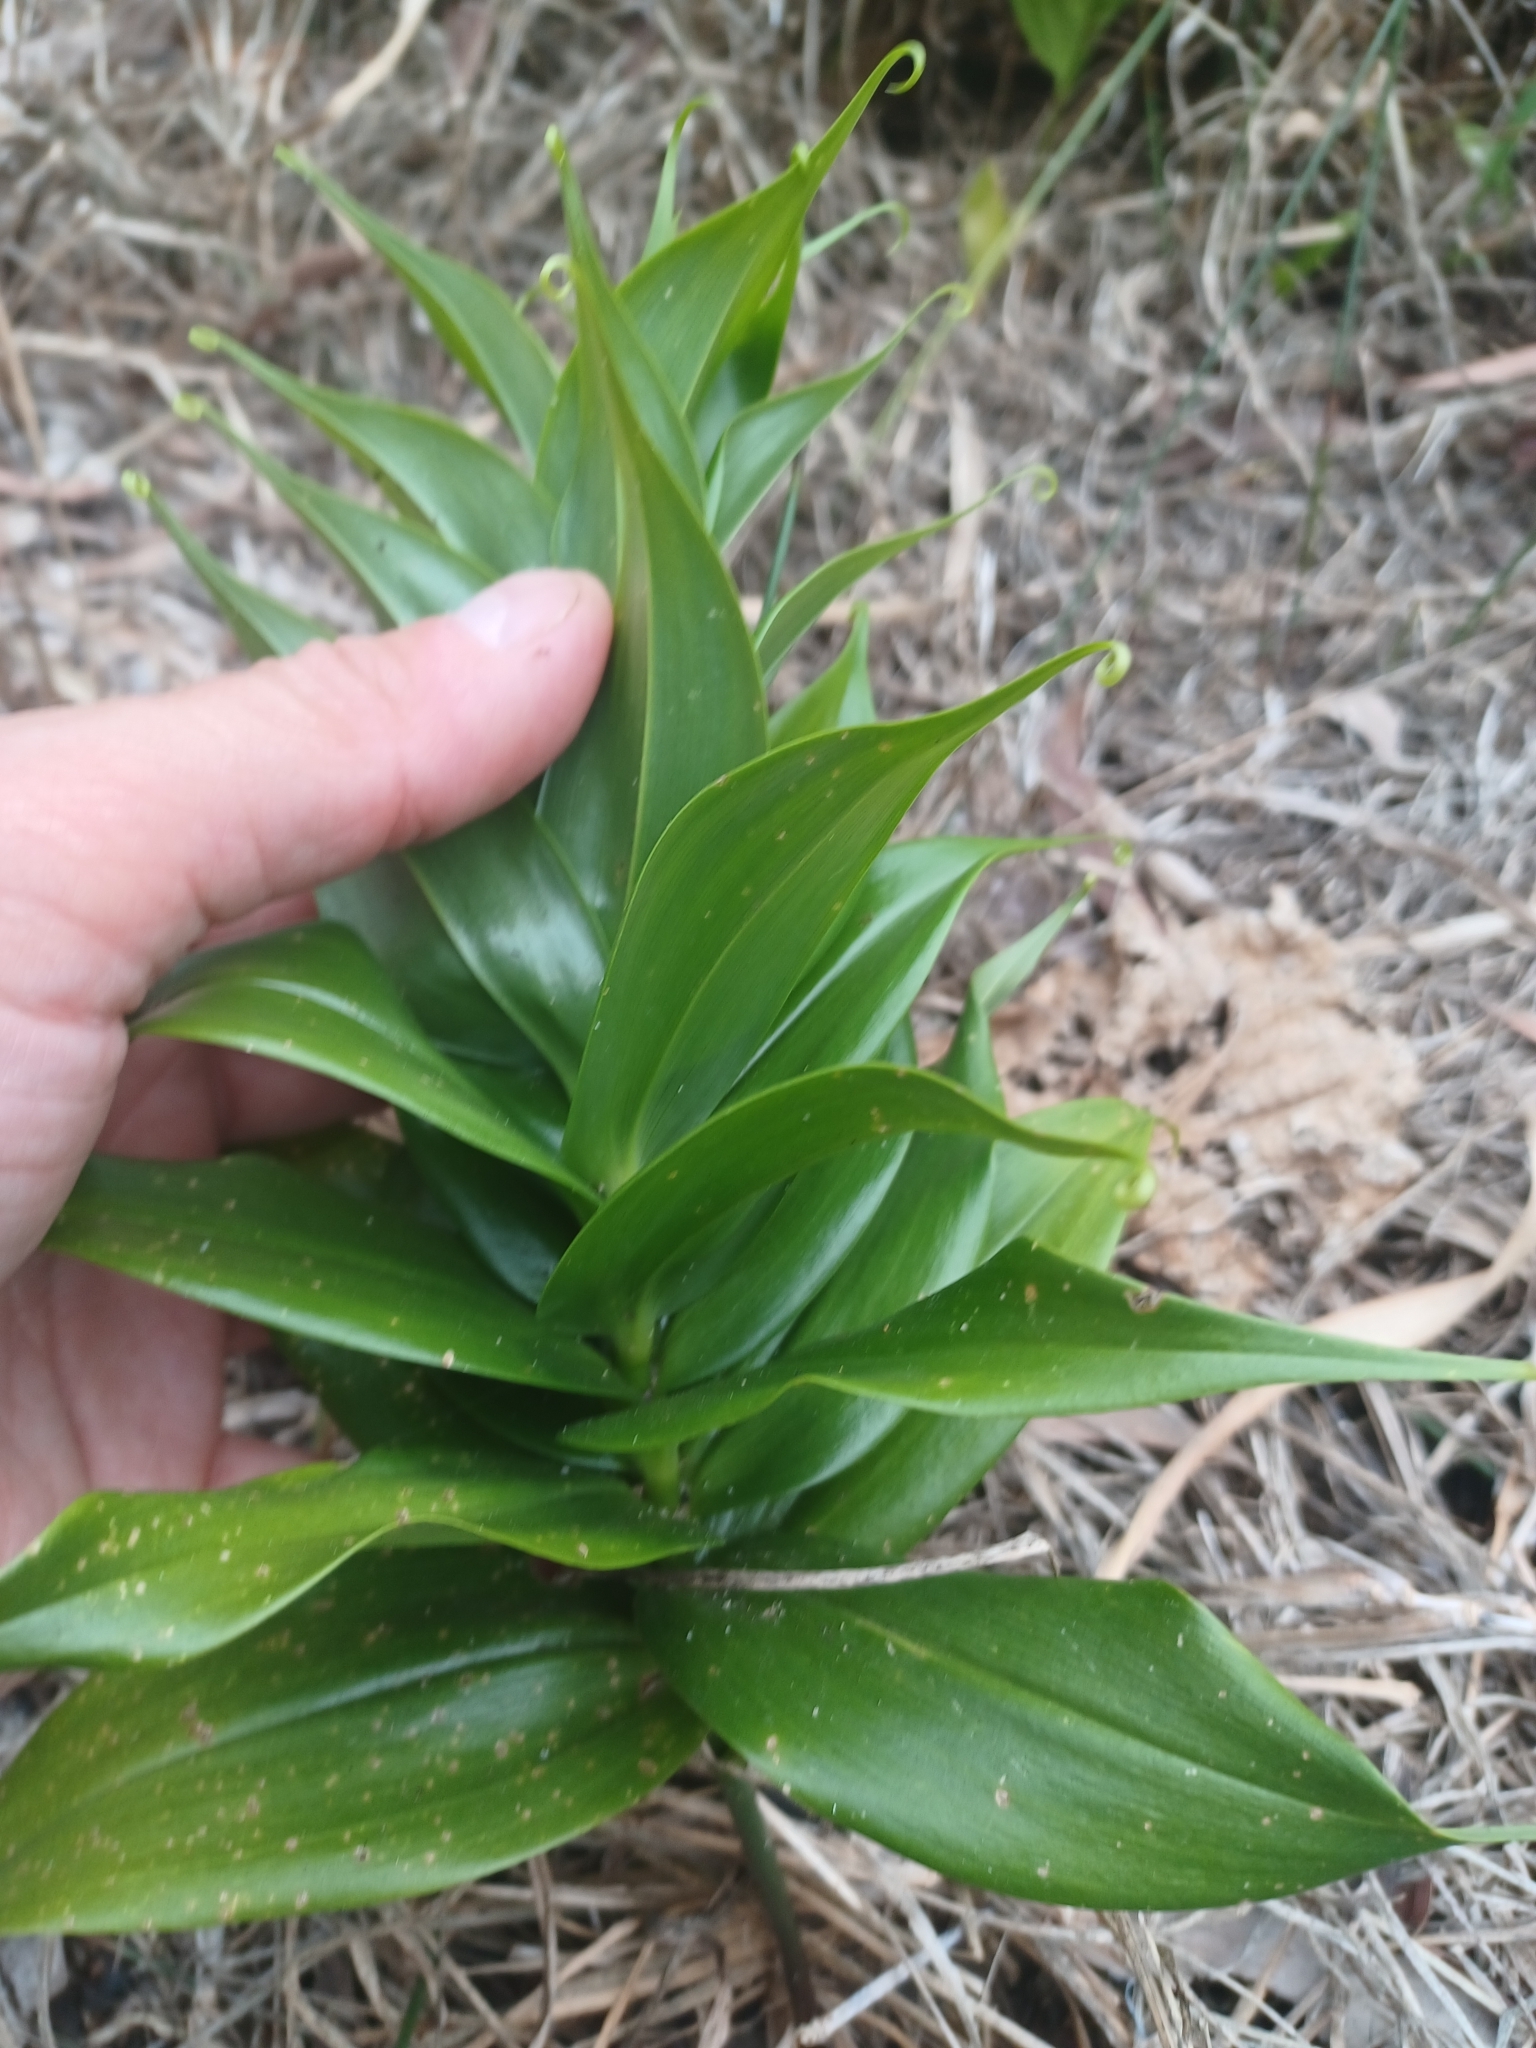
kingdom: Plantae
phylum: Tracheophyta
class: Liliopsida
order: Liliales
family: Colchicaceae
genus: Gloriosa
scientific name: Gloriosa superba
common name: Flame lily
